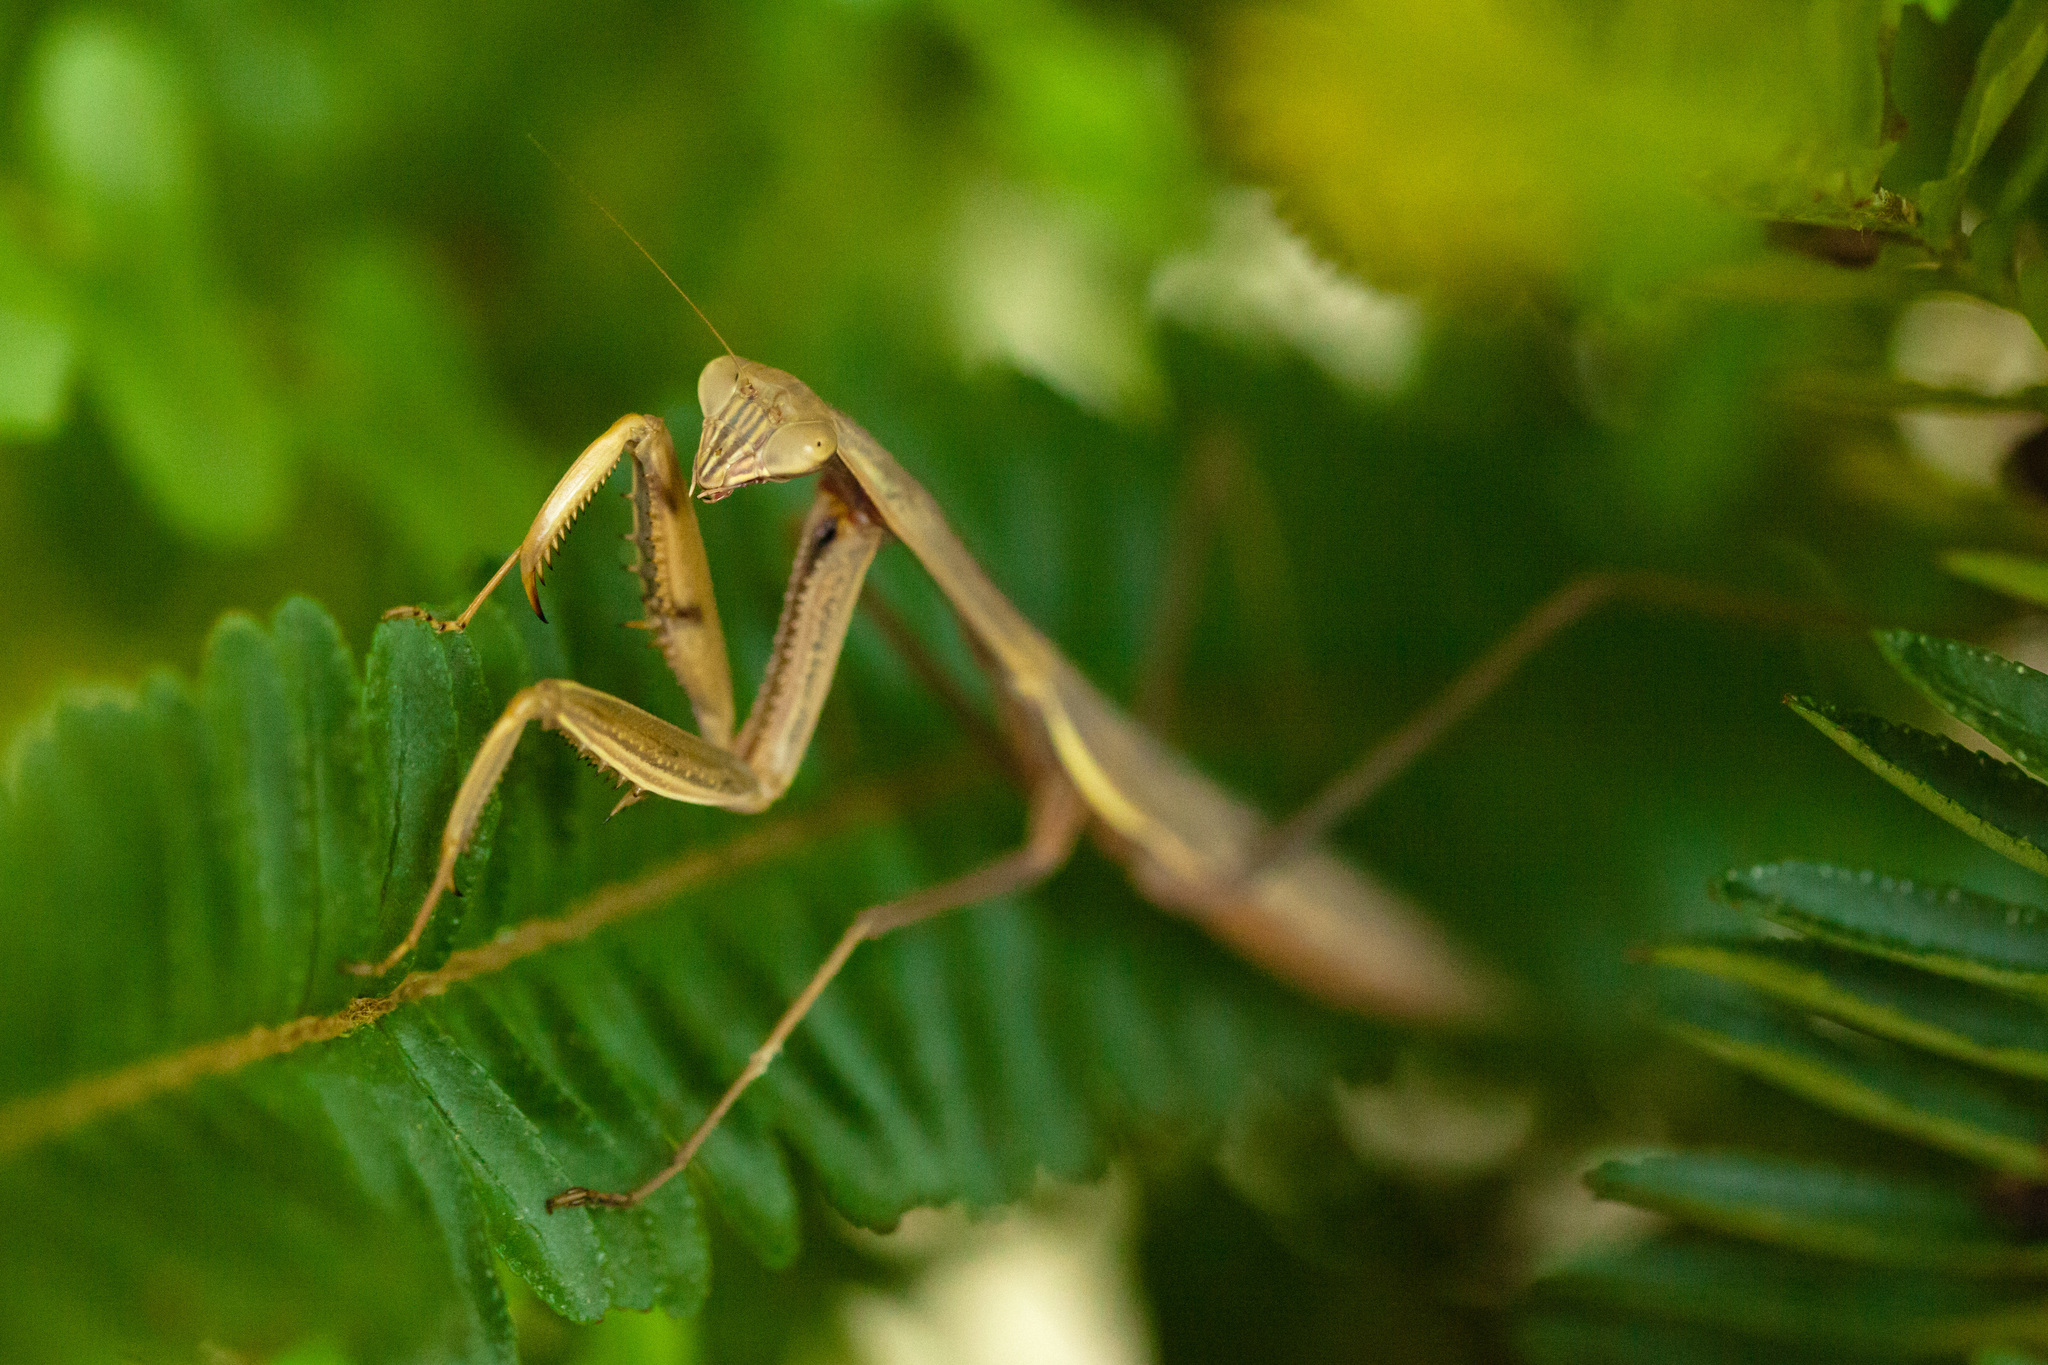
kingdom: Animalia
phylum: Arthropoda
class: Insecta
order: Mantodea
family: Mantidae
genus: Tenodera
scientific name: Tenodera sinensis
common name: Chinese mantis
